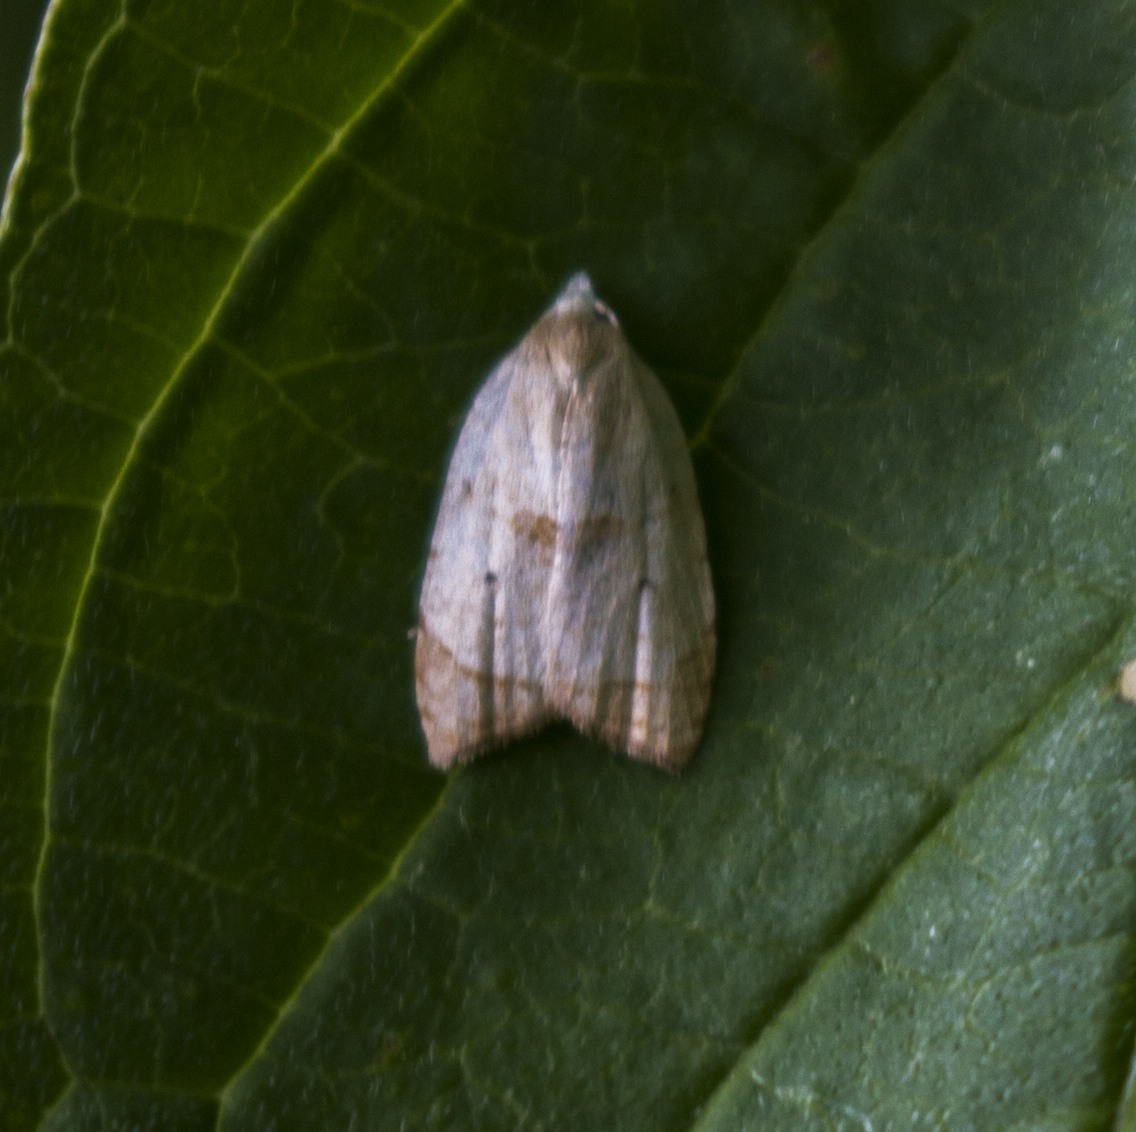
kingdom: Animalia
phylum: Arthropoda
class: Insecta
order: Lepidoptera
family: Tortricidae
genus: Coelostathma
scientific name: Coelostathma discopunctana
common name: Batman moth
